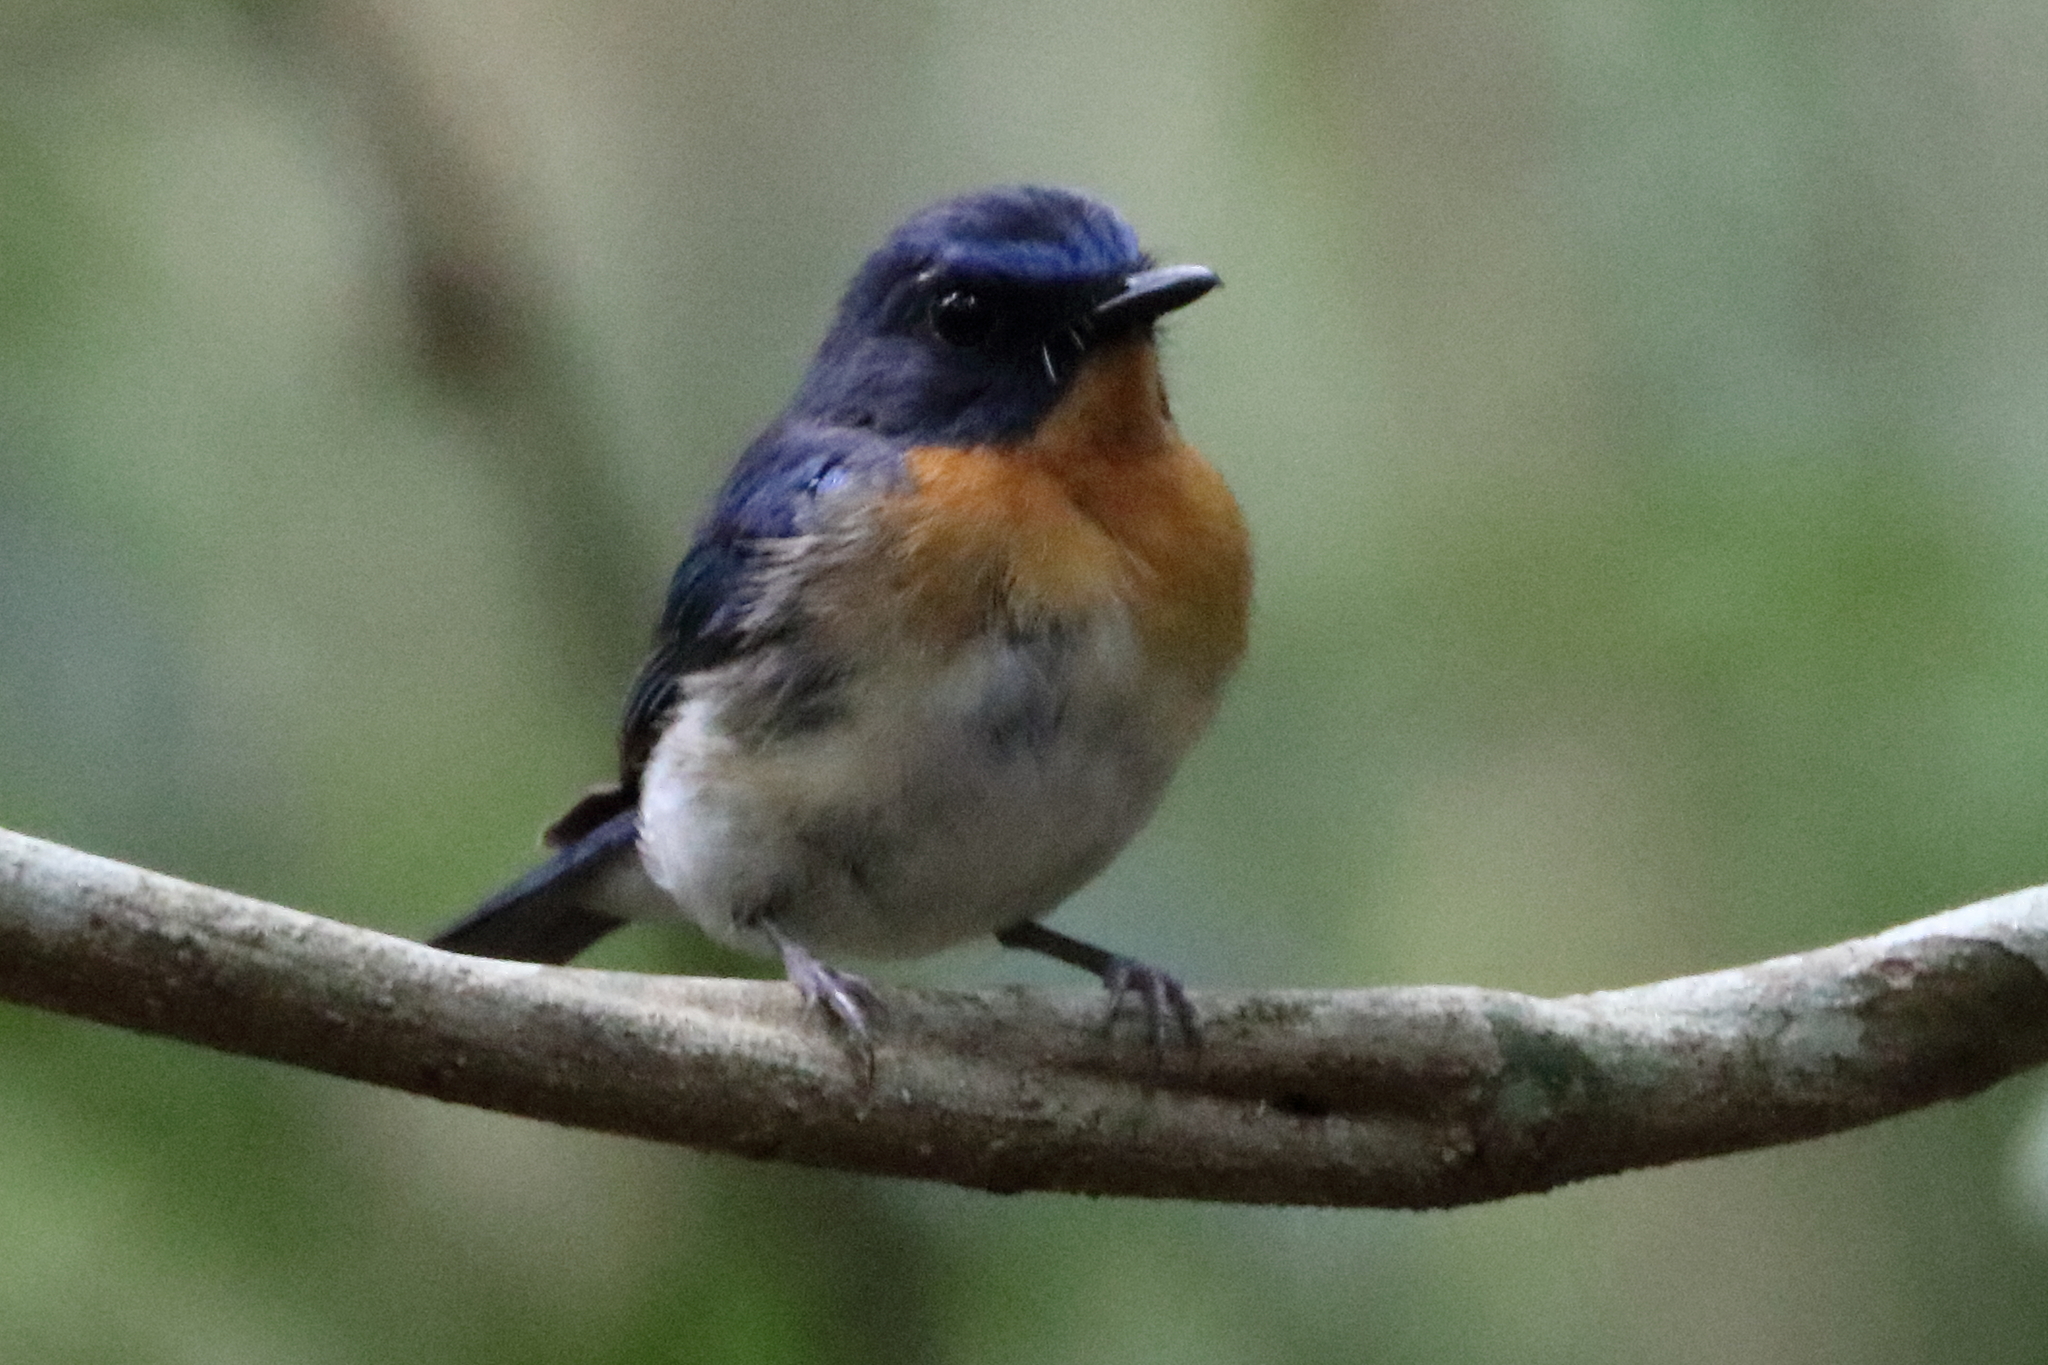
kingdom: Animalia
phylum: Chordata
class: Aves
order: Passeriformes
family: Muscicapidae
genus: Cyornis
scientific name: Cyornis tickelliae
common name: Tickell's blue flycatcher
